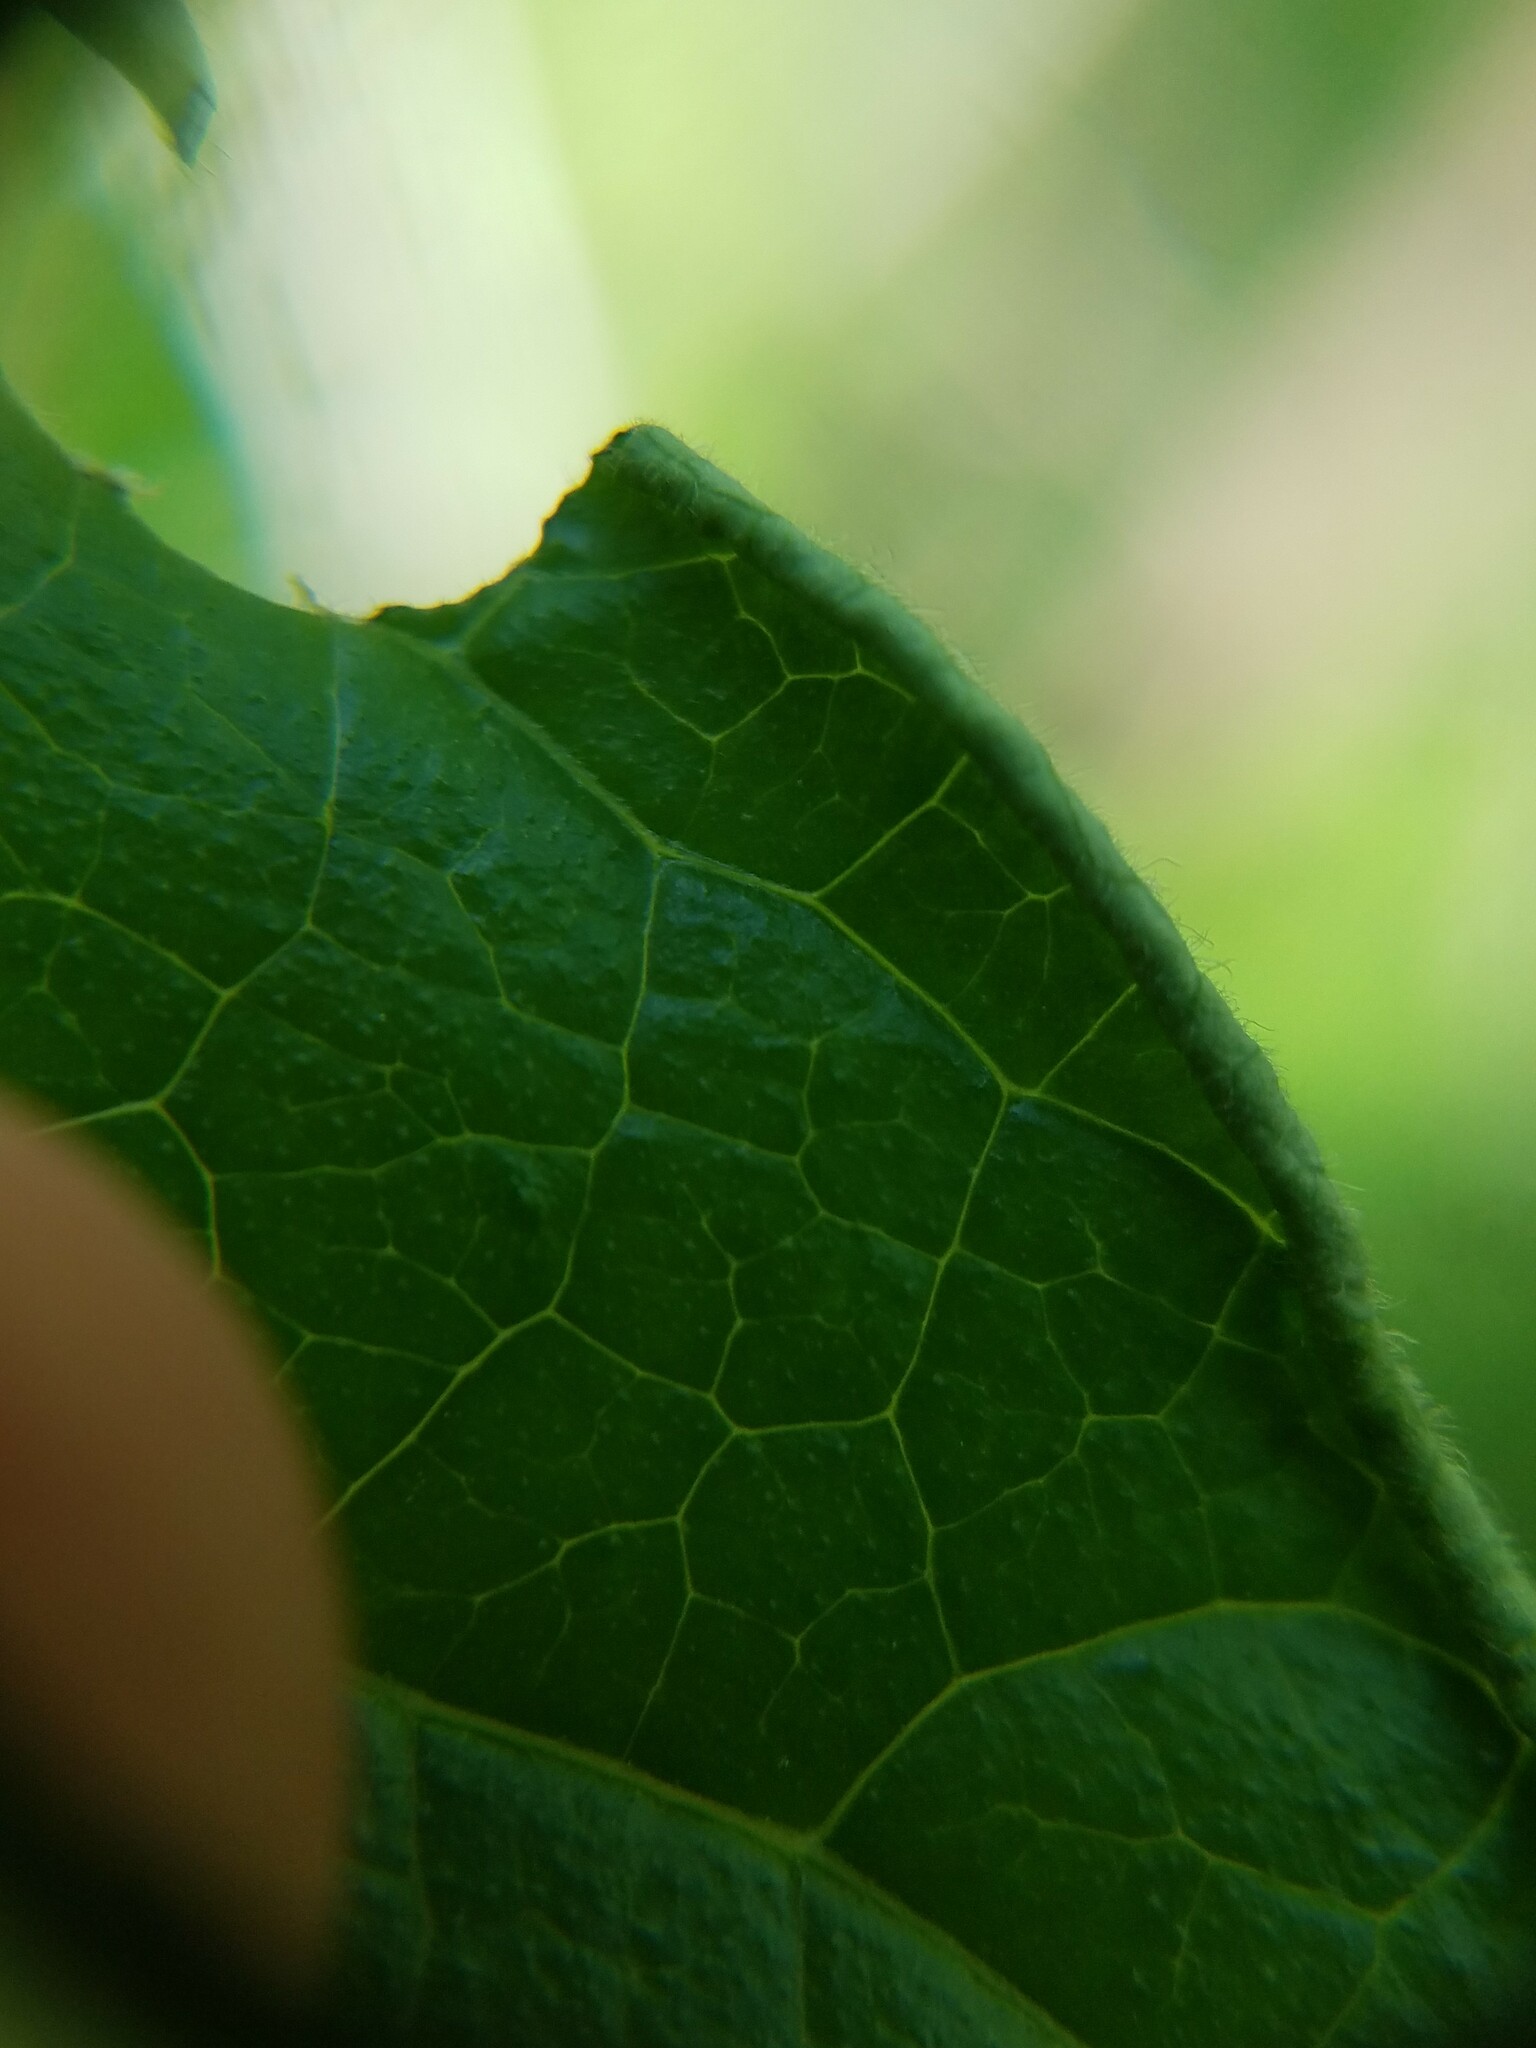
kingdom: Plantae
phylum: Tracheophyta
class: Magnoliopsida
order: Laurales
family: Calycanthaceae
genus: Calycanthus
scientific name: Calycanthus floridus
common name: Carolina-allspice
